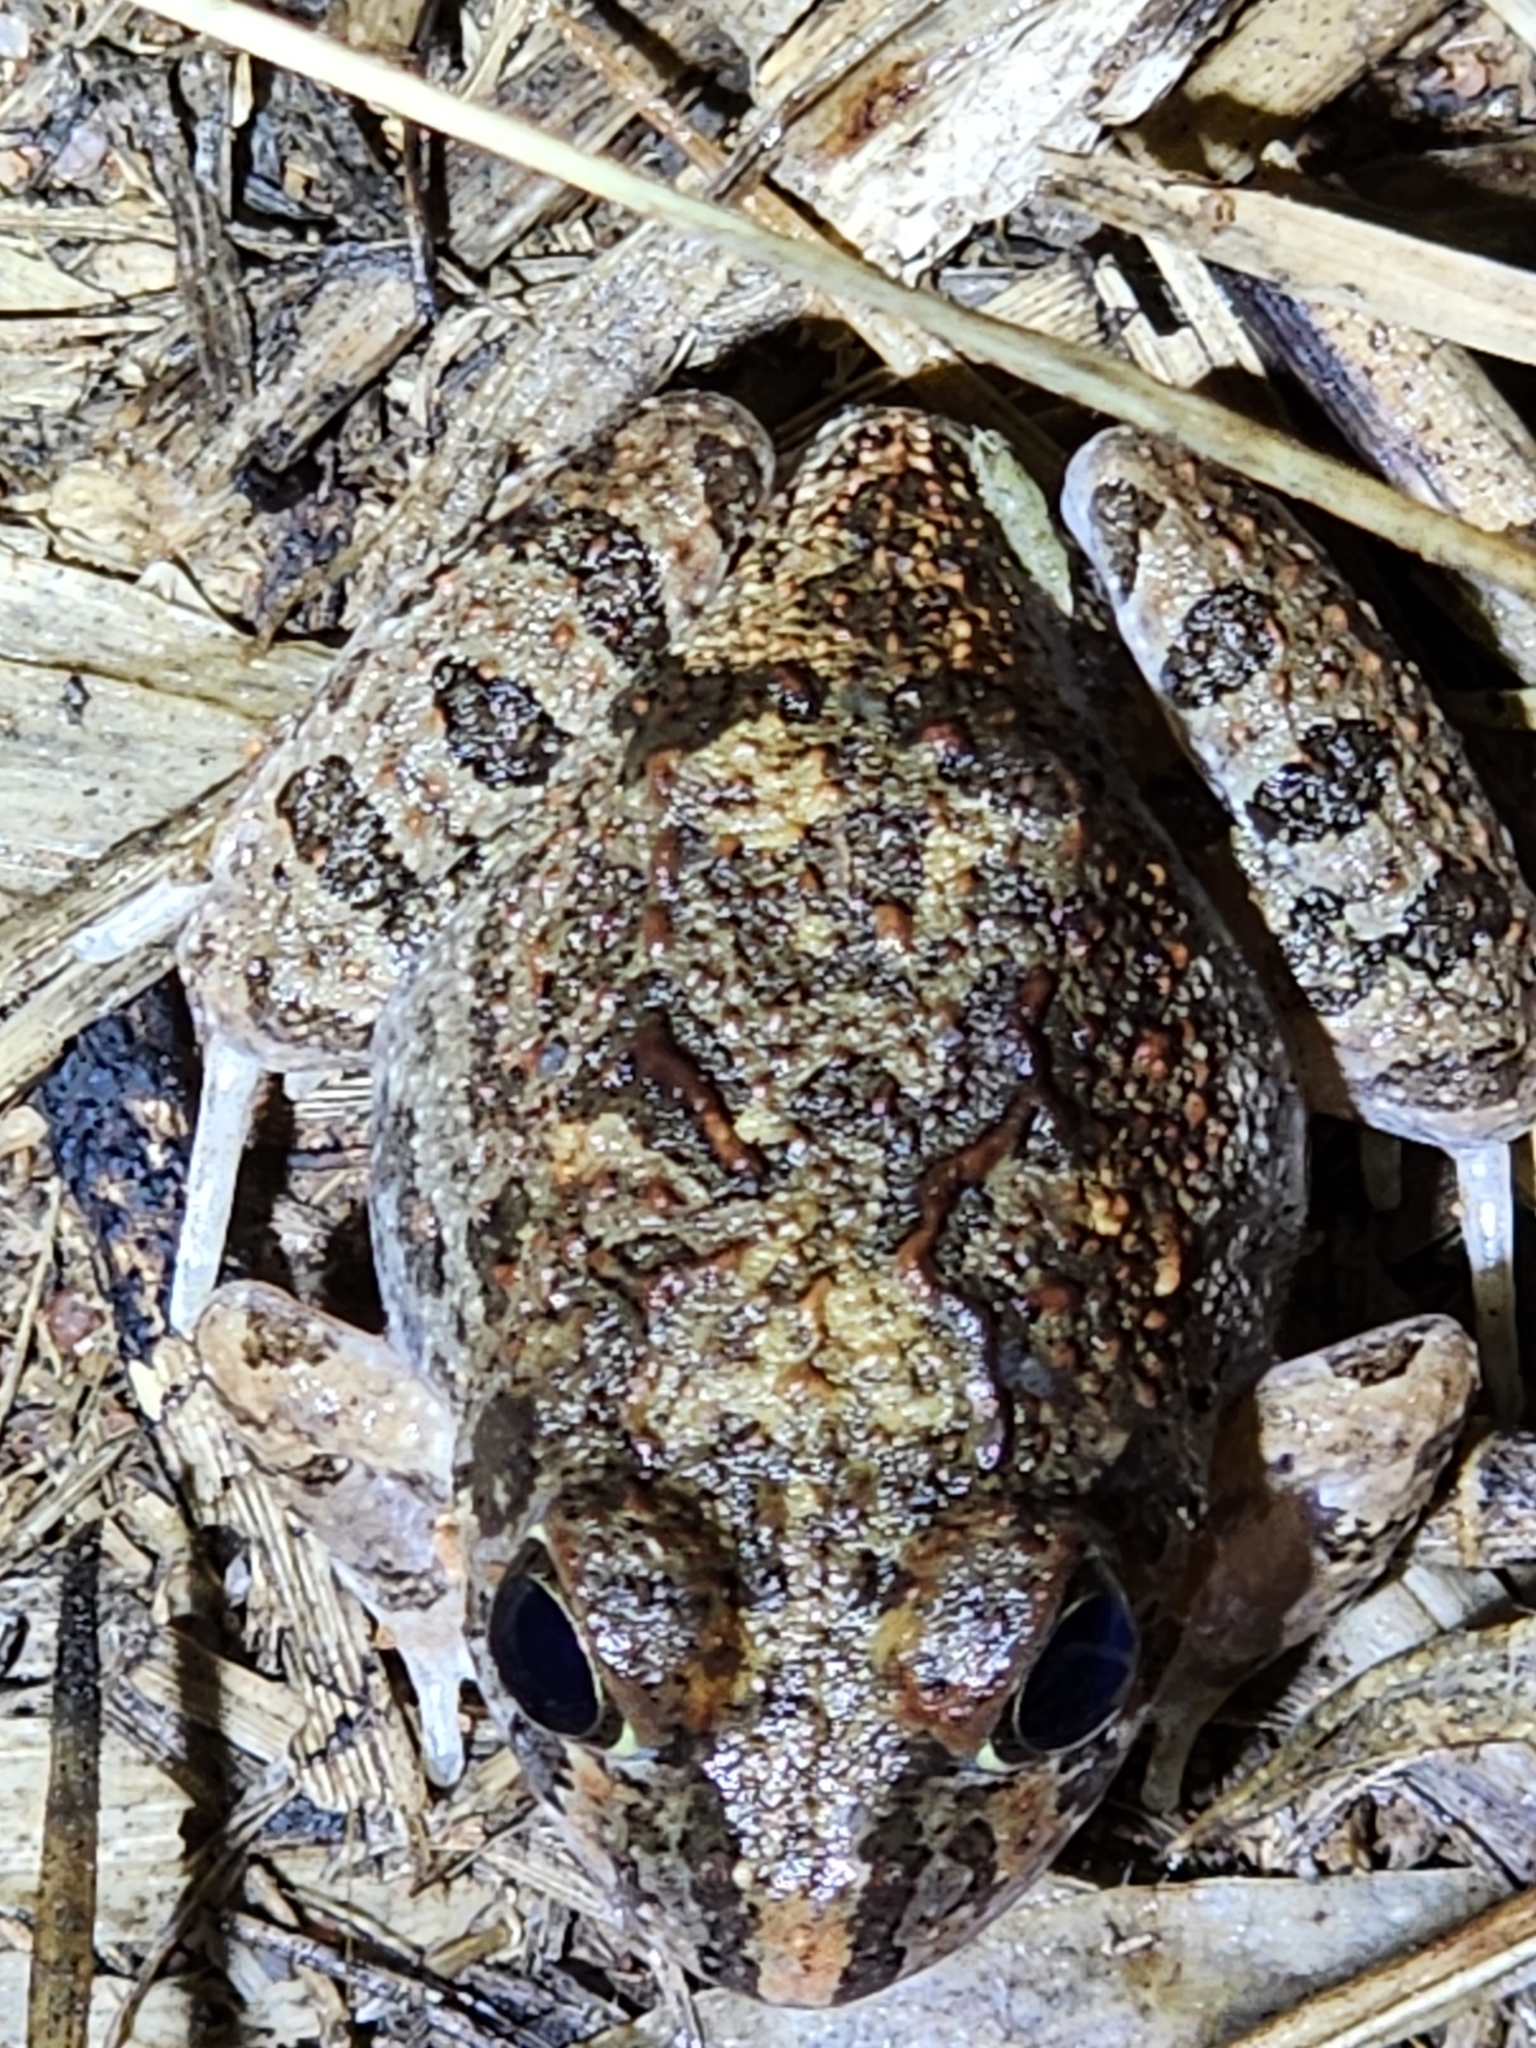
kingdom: Animalia
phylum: Chordata
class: Amphibia
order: Anura
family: Limnodynastidae
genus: Platyplectrum
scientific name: Platyplectrum ornatum
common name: Ornate burrowing frog
